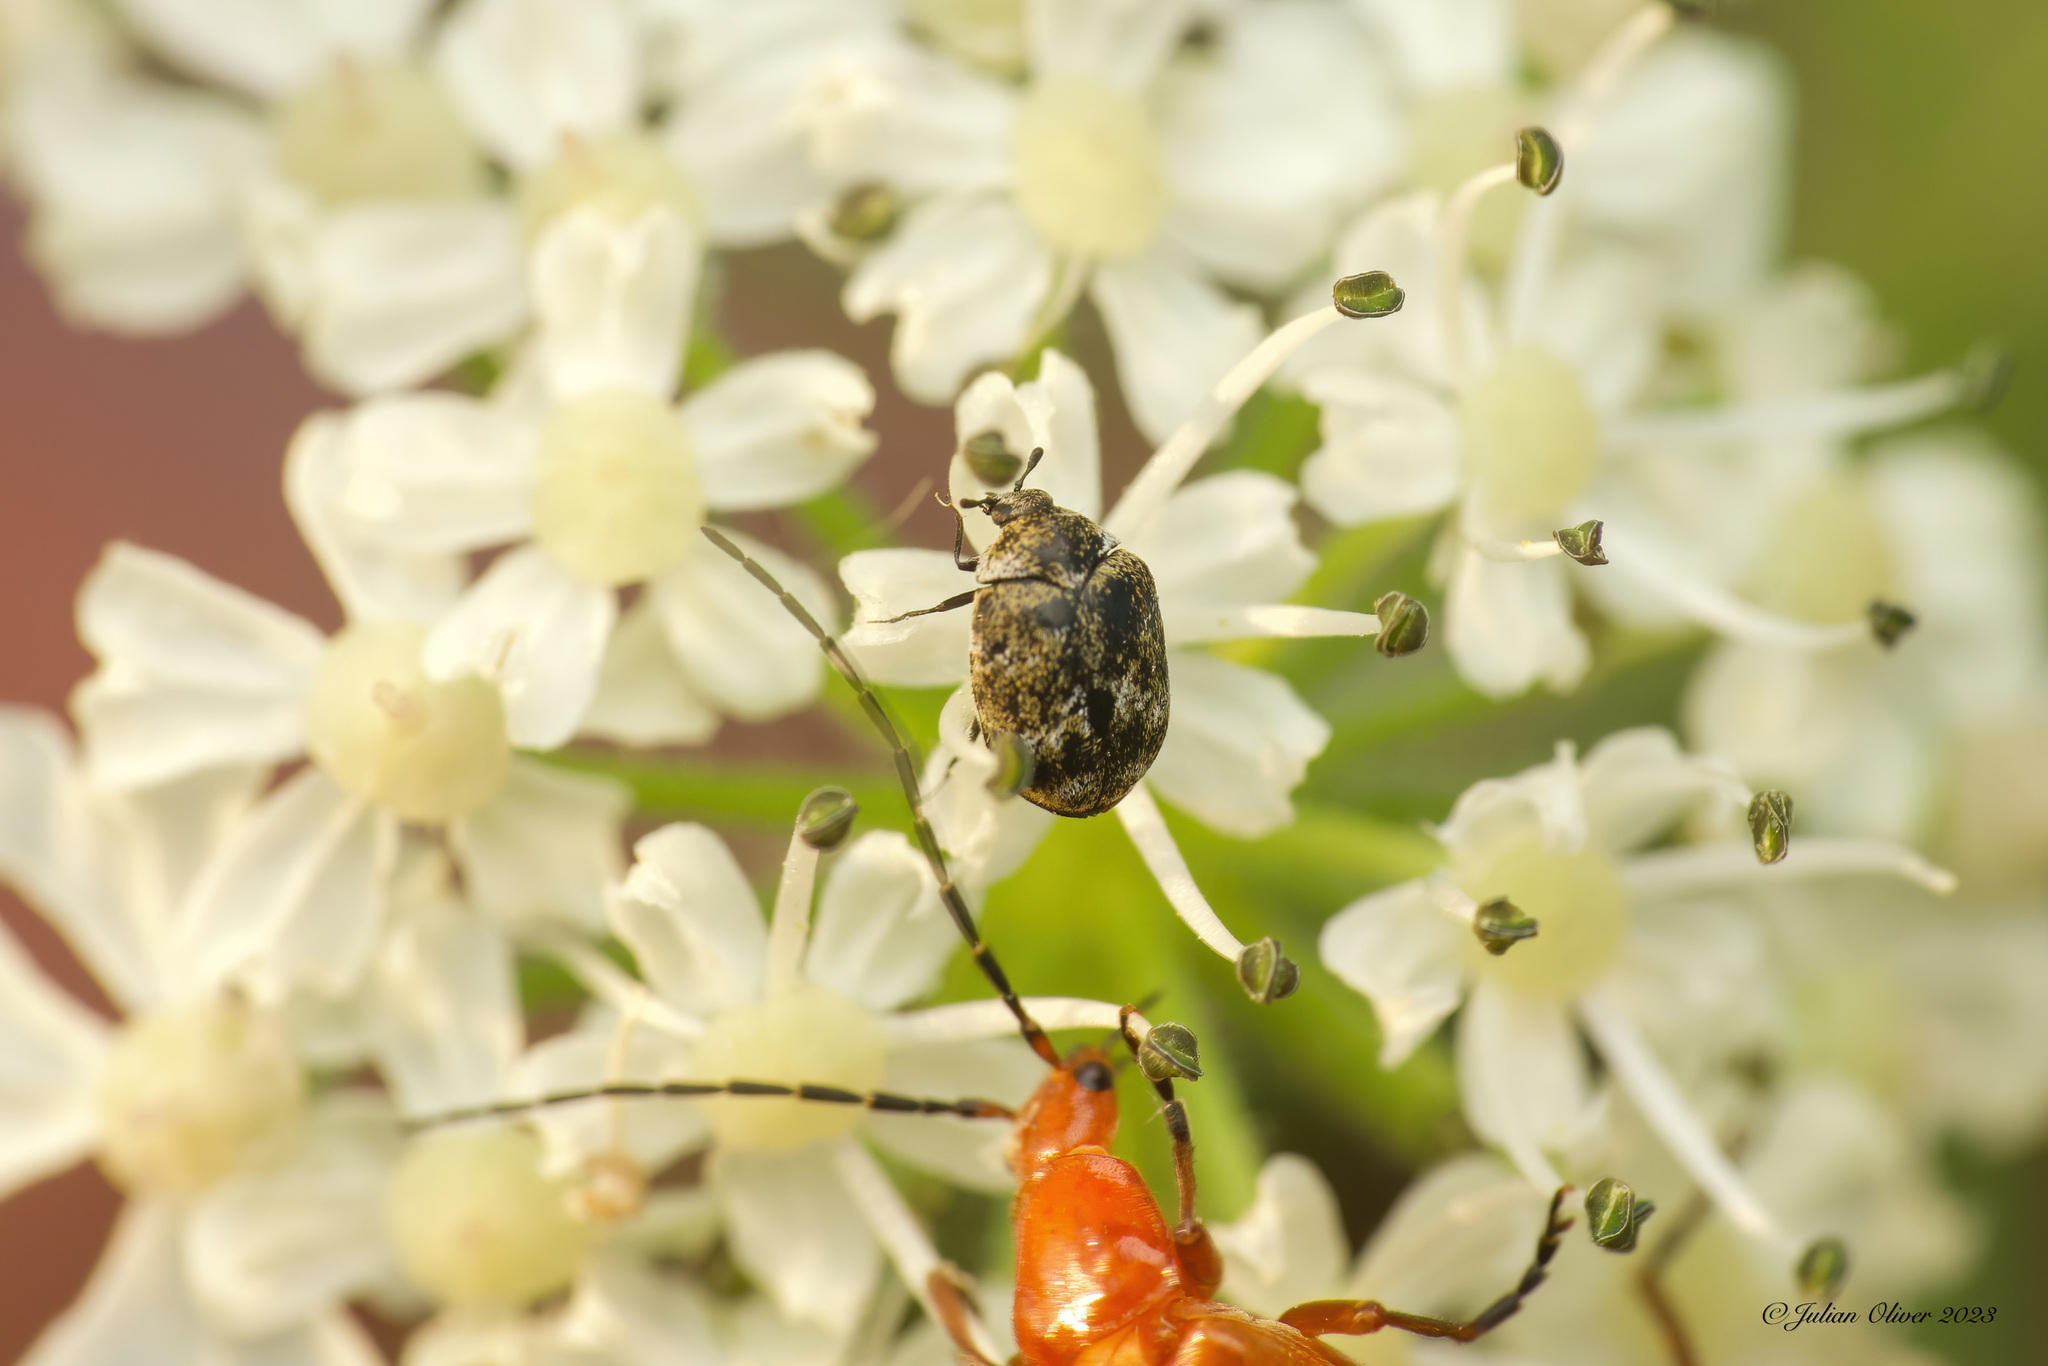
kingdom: Animalia
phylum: Arthropoda
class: Insecta
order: Coleoptera
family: Dermestidae
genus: Anthrenus
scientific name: Anthrenus verbasci
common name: Varied carpet beetle
